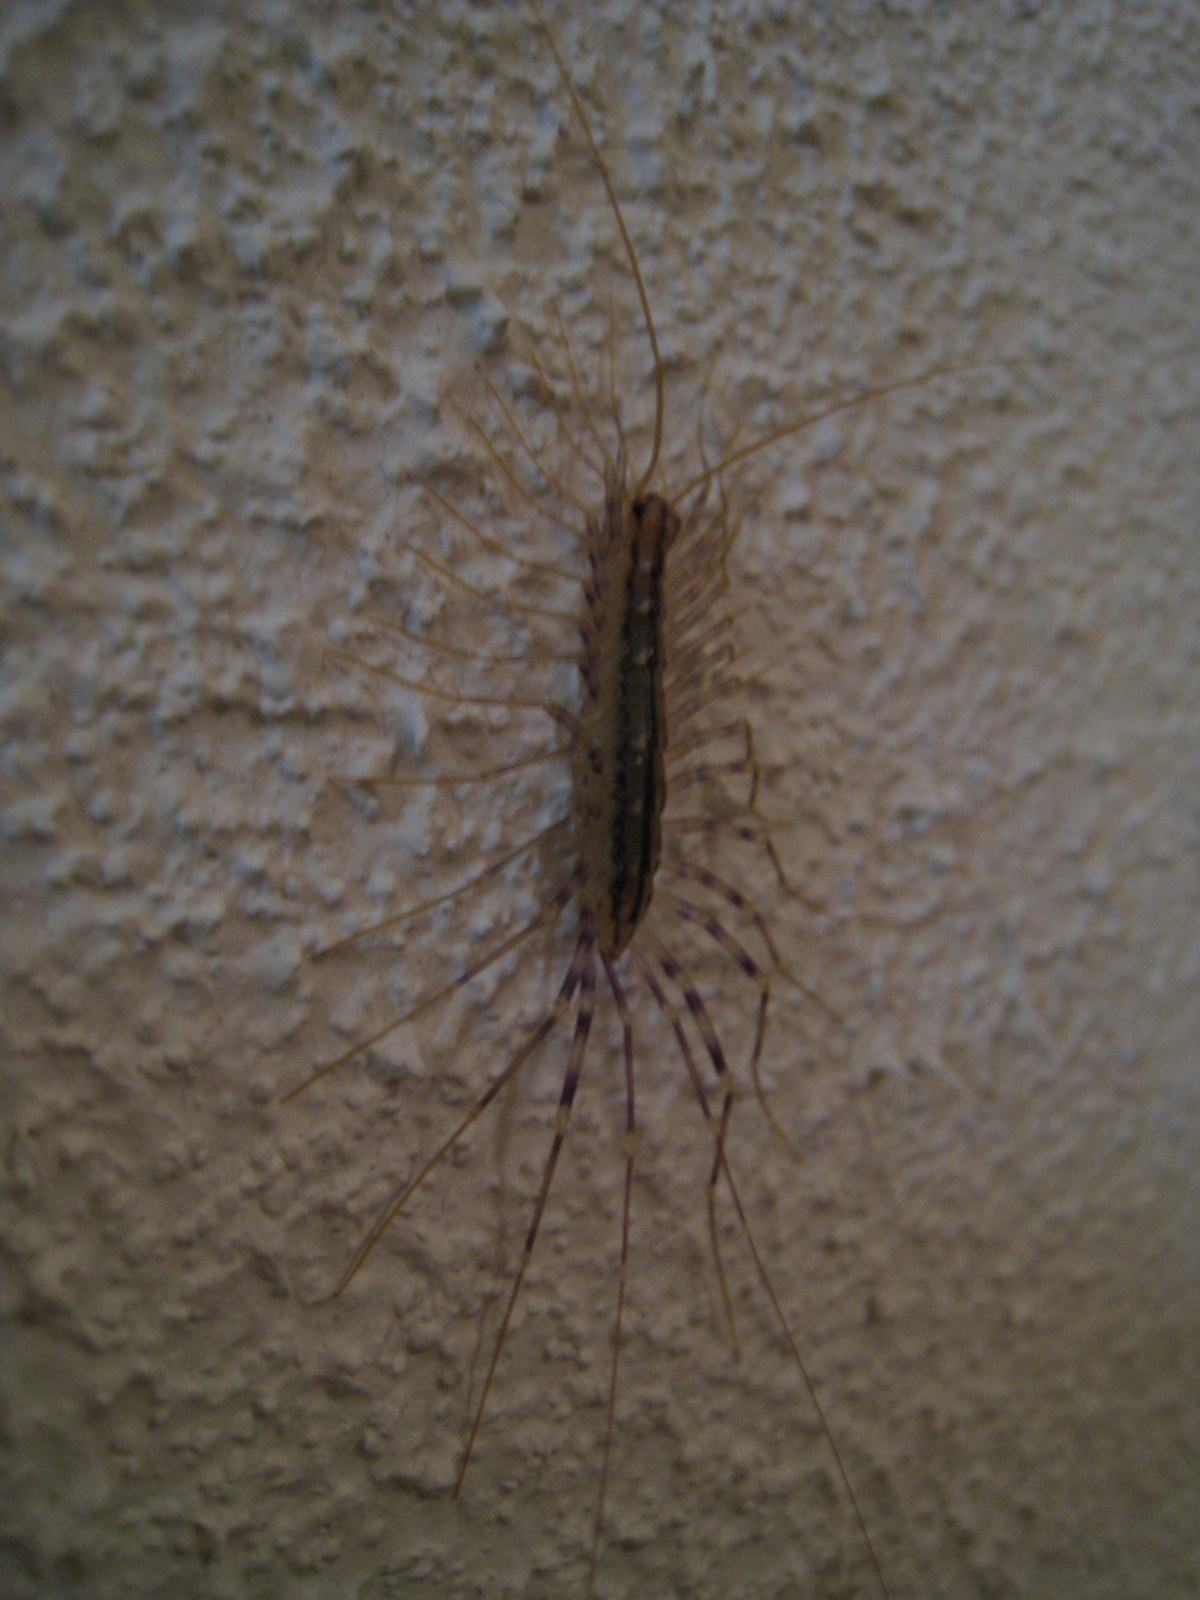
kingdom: Animalia
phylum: Arthropoda
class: Chilopoda
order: Scutigeromorpha
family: Scutigeridae
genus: Scutigera
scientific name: Scutigera coleoptrata
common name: House centipede
